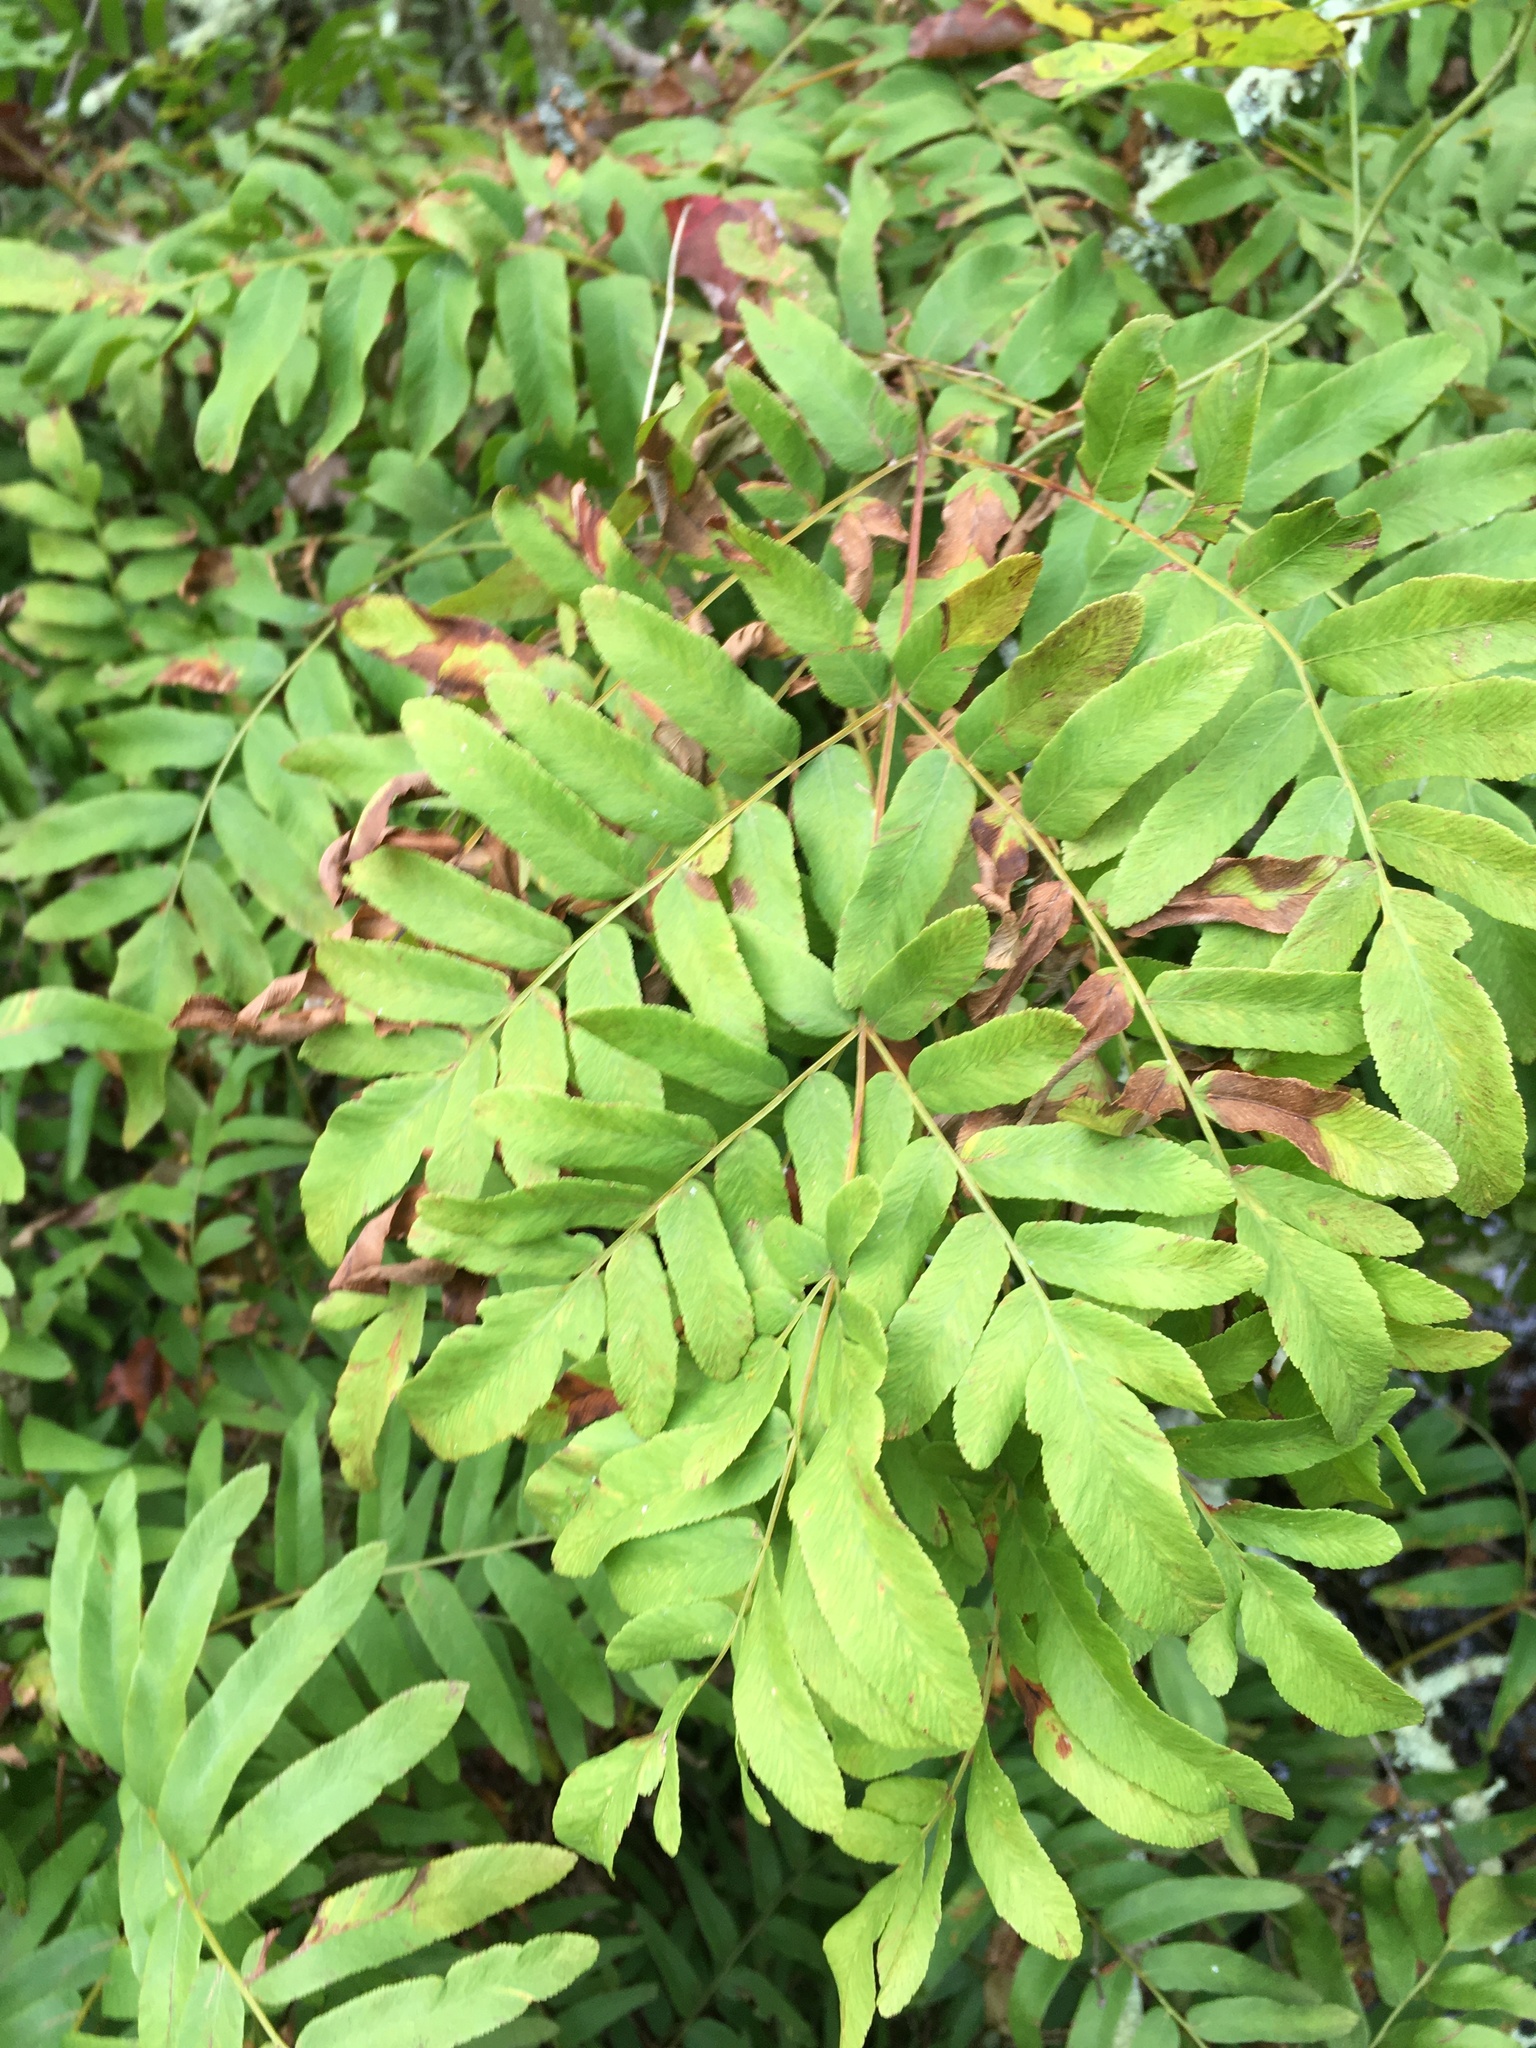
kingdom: Plantae
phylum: Tracheophyta
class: Polypodiopsida
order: Osmundales
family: Osmundaceae
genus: Osmunda
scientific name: Osmunda spectabilis
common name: American royal fern
